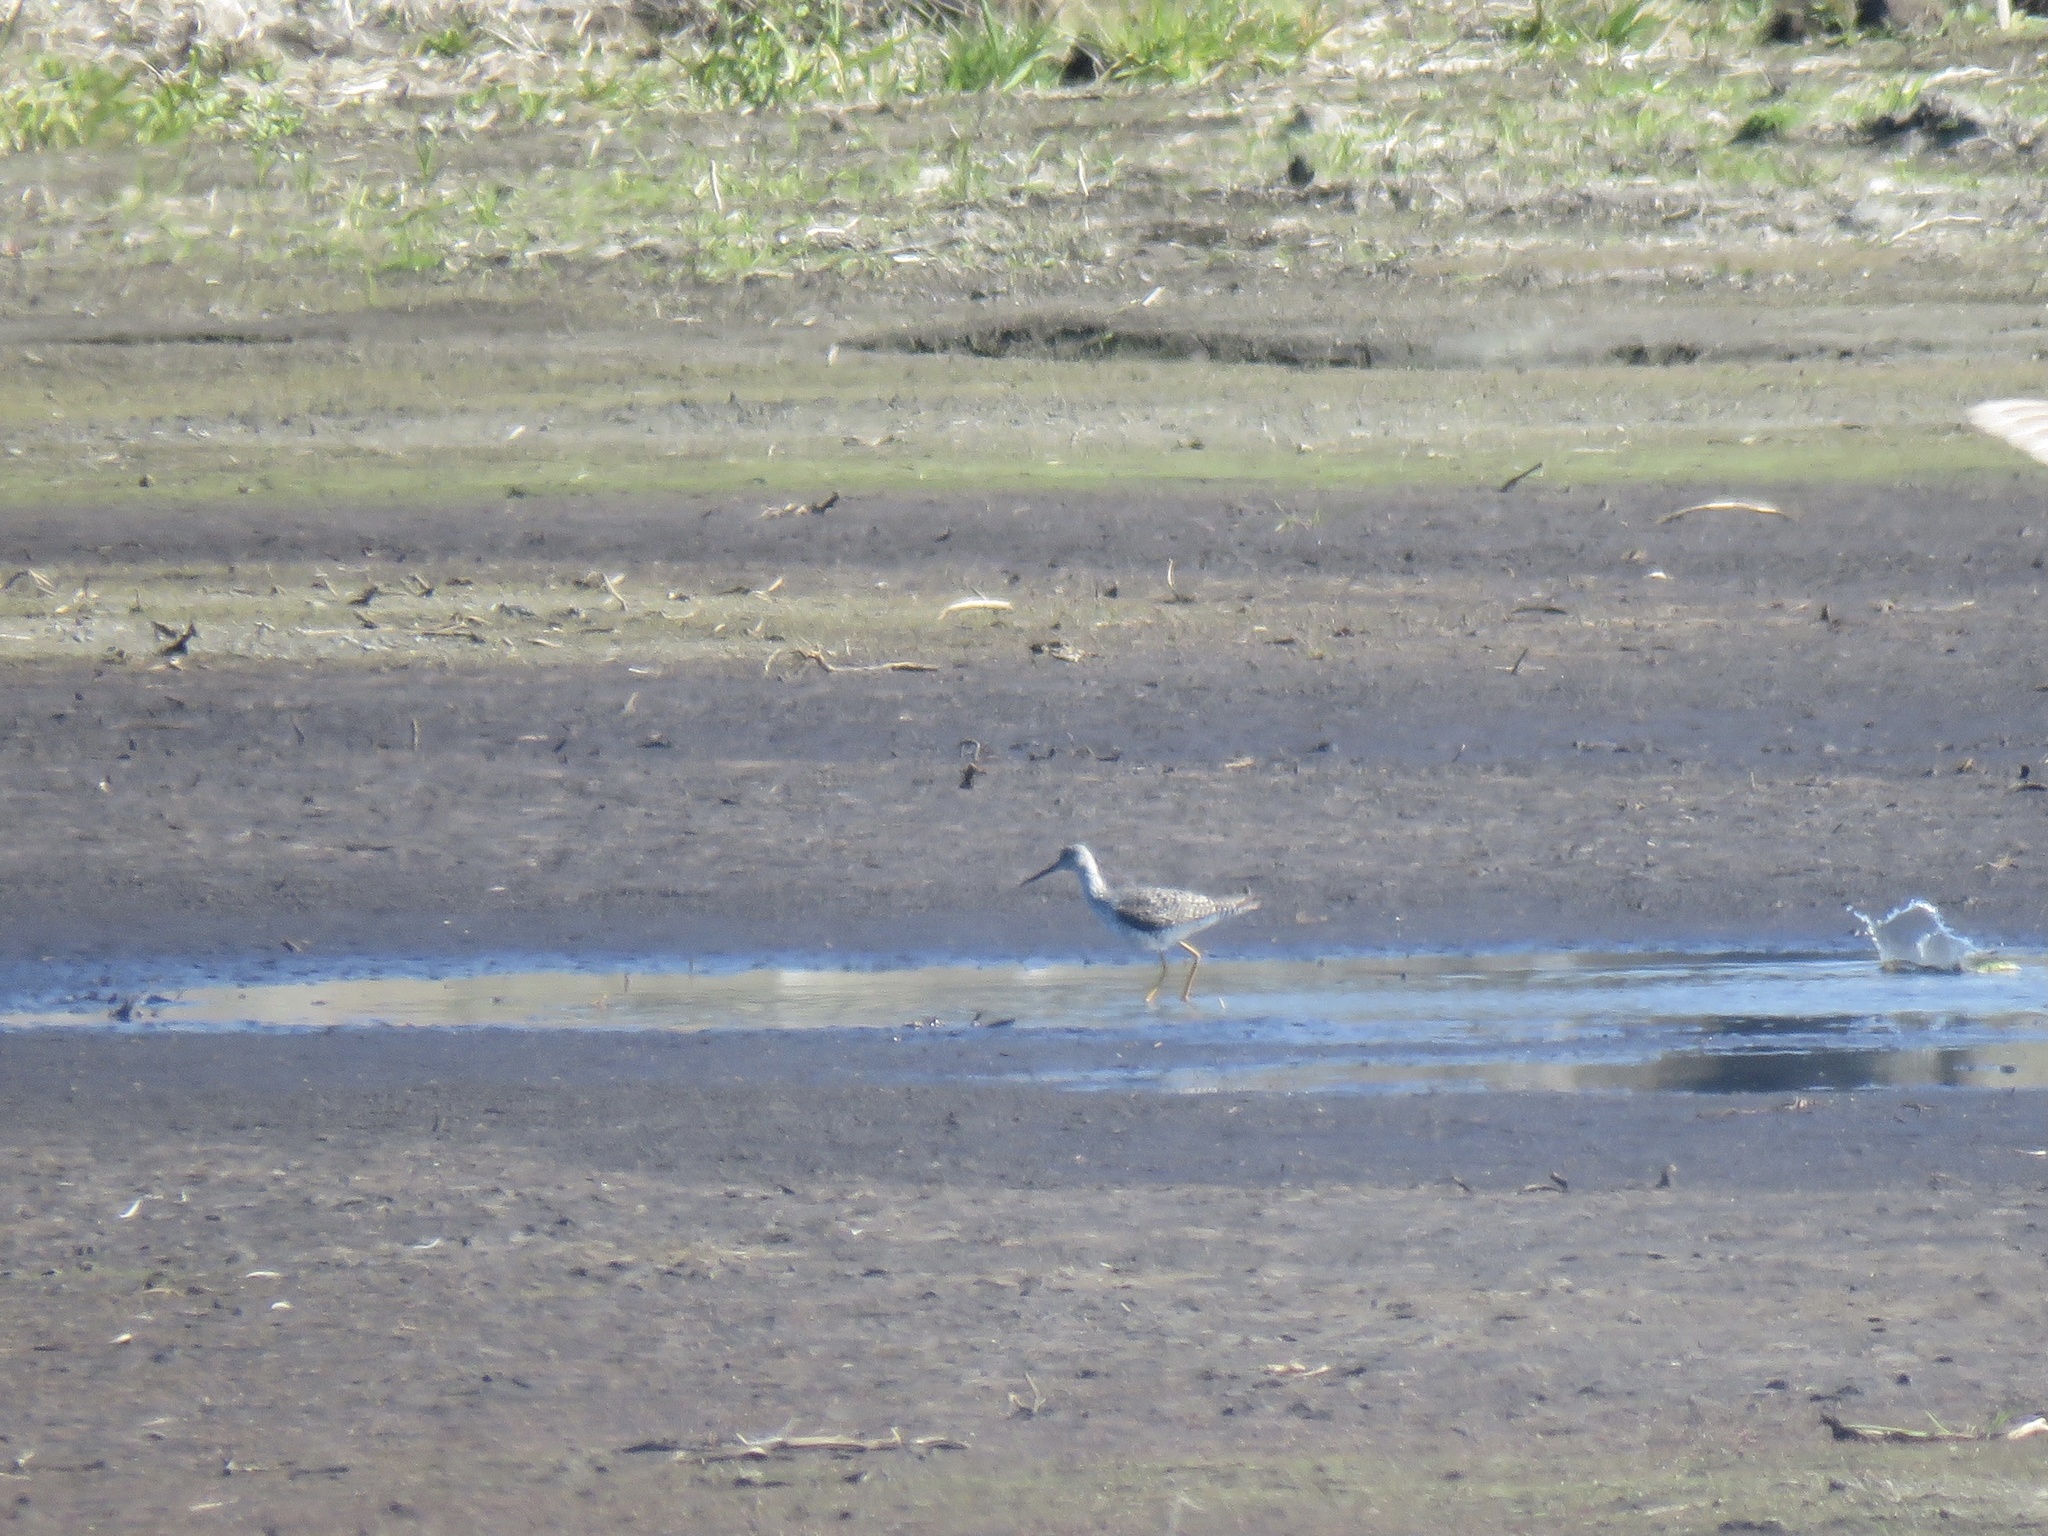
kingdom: Animalia
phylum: Chordata
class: Aves
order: Charadriiformes
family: Scolopacidae
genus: Tringa
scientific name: Tringa melanoleuca
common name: Greater yellowlegs
